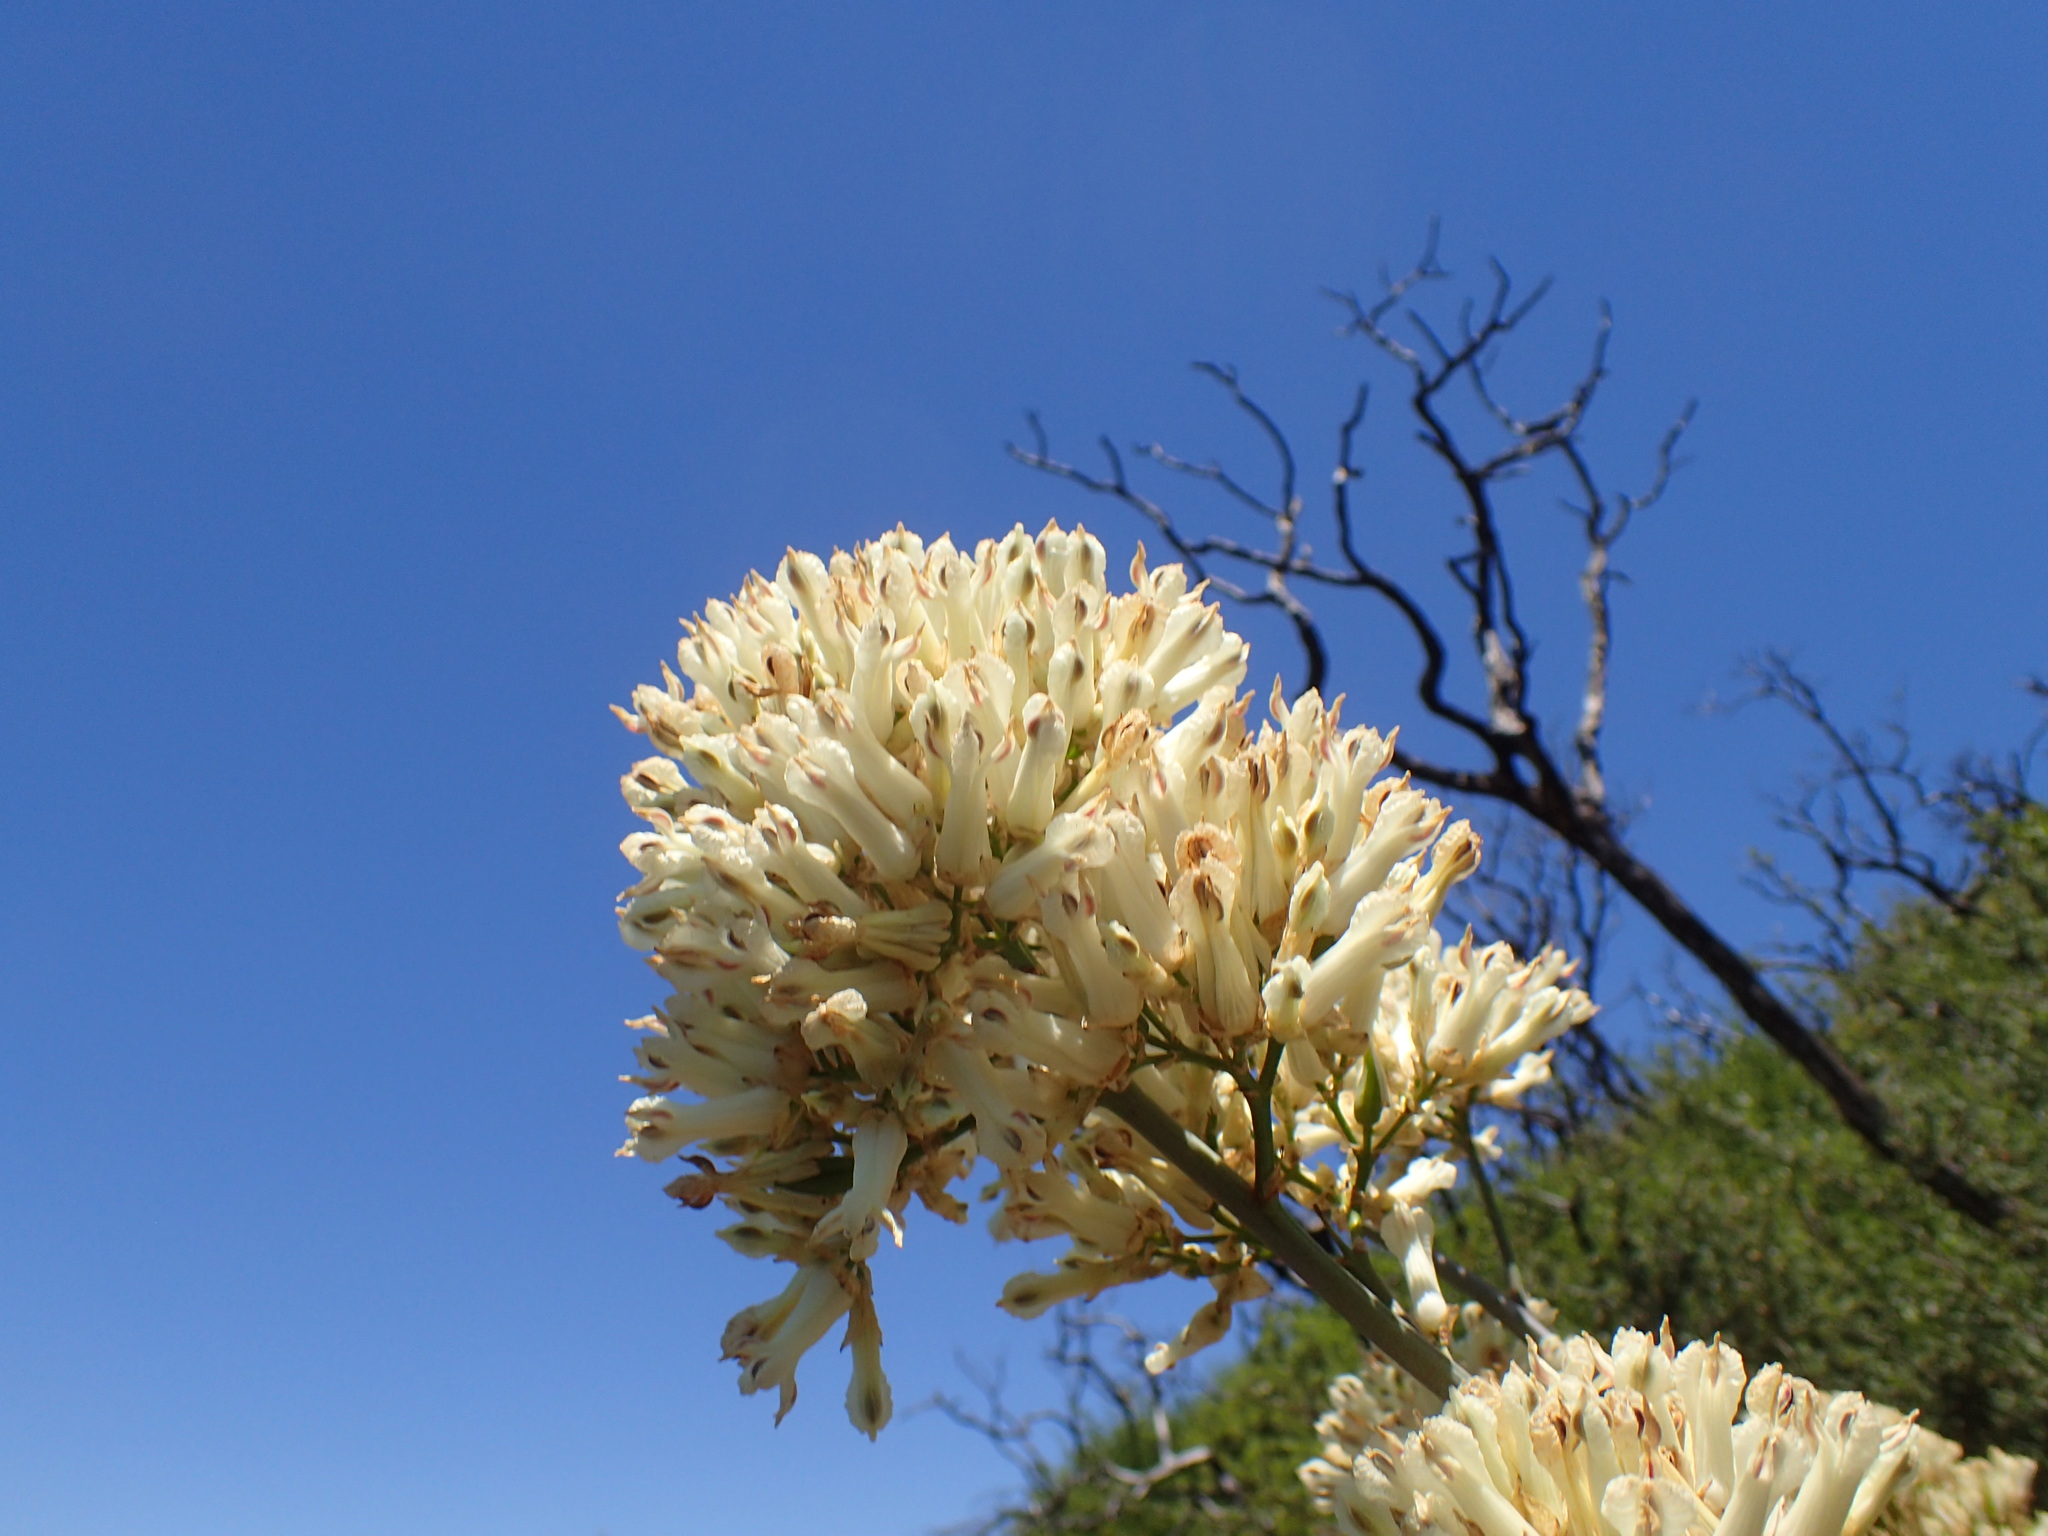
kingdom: Plantae
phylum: Tracheophyta
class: Magnoliopsida
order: Ranunculales
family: Papaveraceae
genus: Ehrendorferia
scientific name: Ehrendorferia ochroleuca
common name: White eardrops
